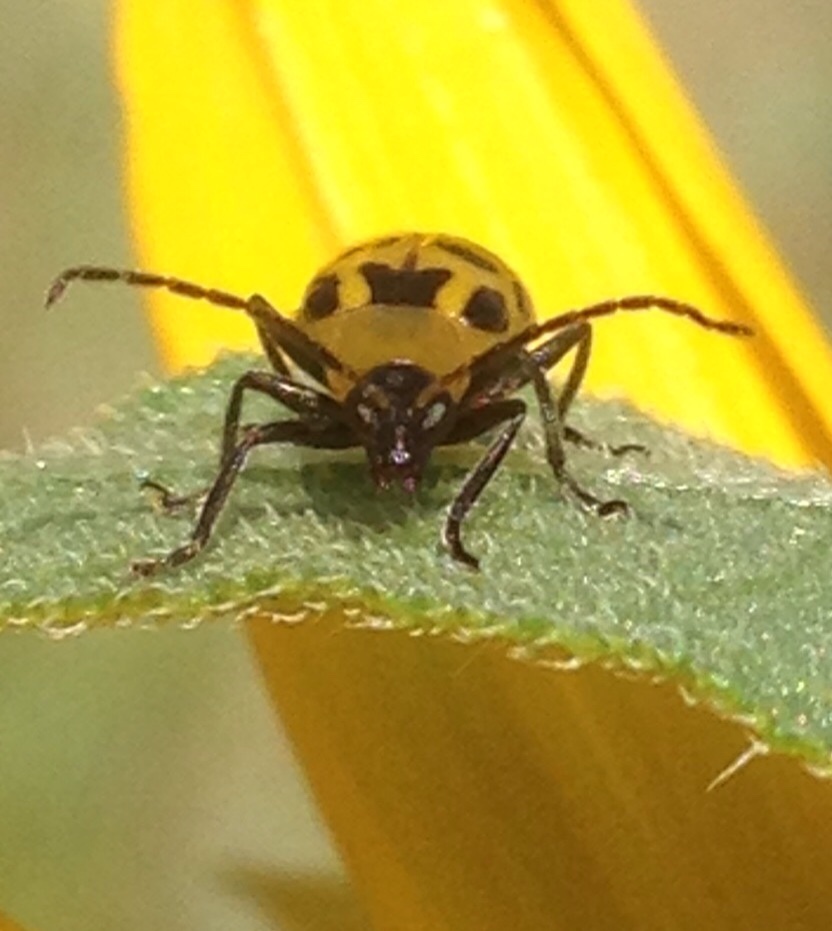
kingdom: Animalia
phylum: Arthropoda
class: Insecta
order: Coleoptera
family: Chrysomelidae
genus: Diabrotica
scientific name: Diabrotica undecimpunctata
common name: Spotted cucumber beetle
